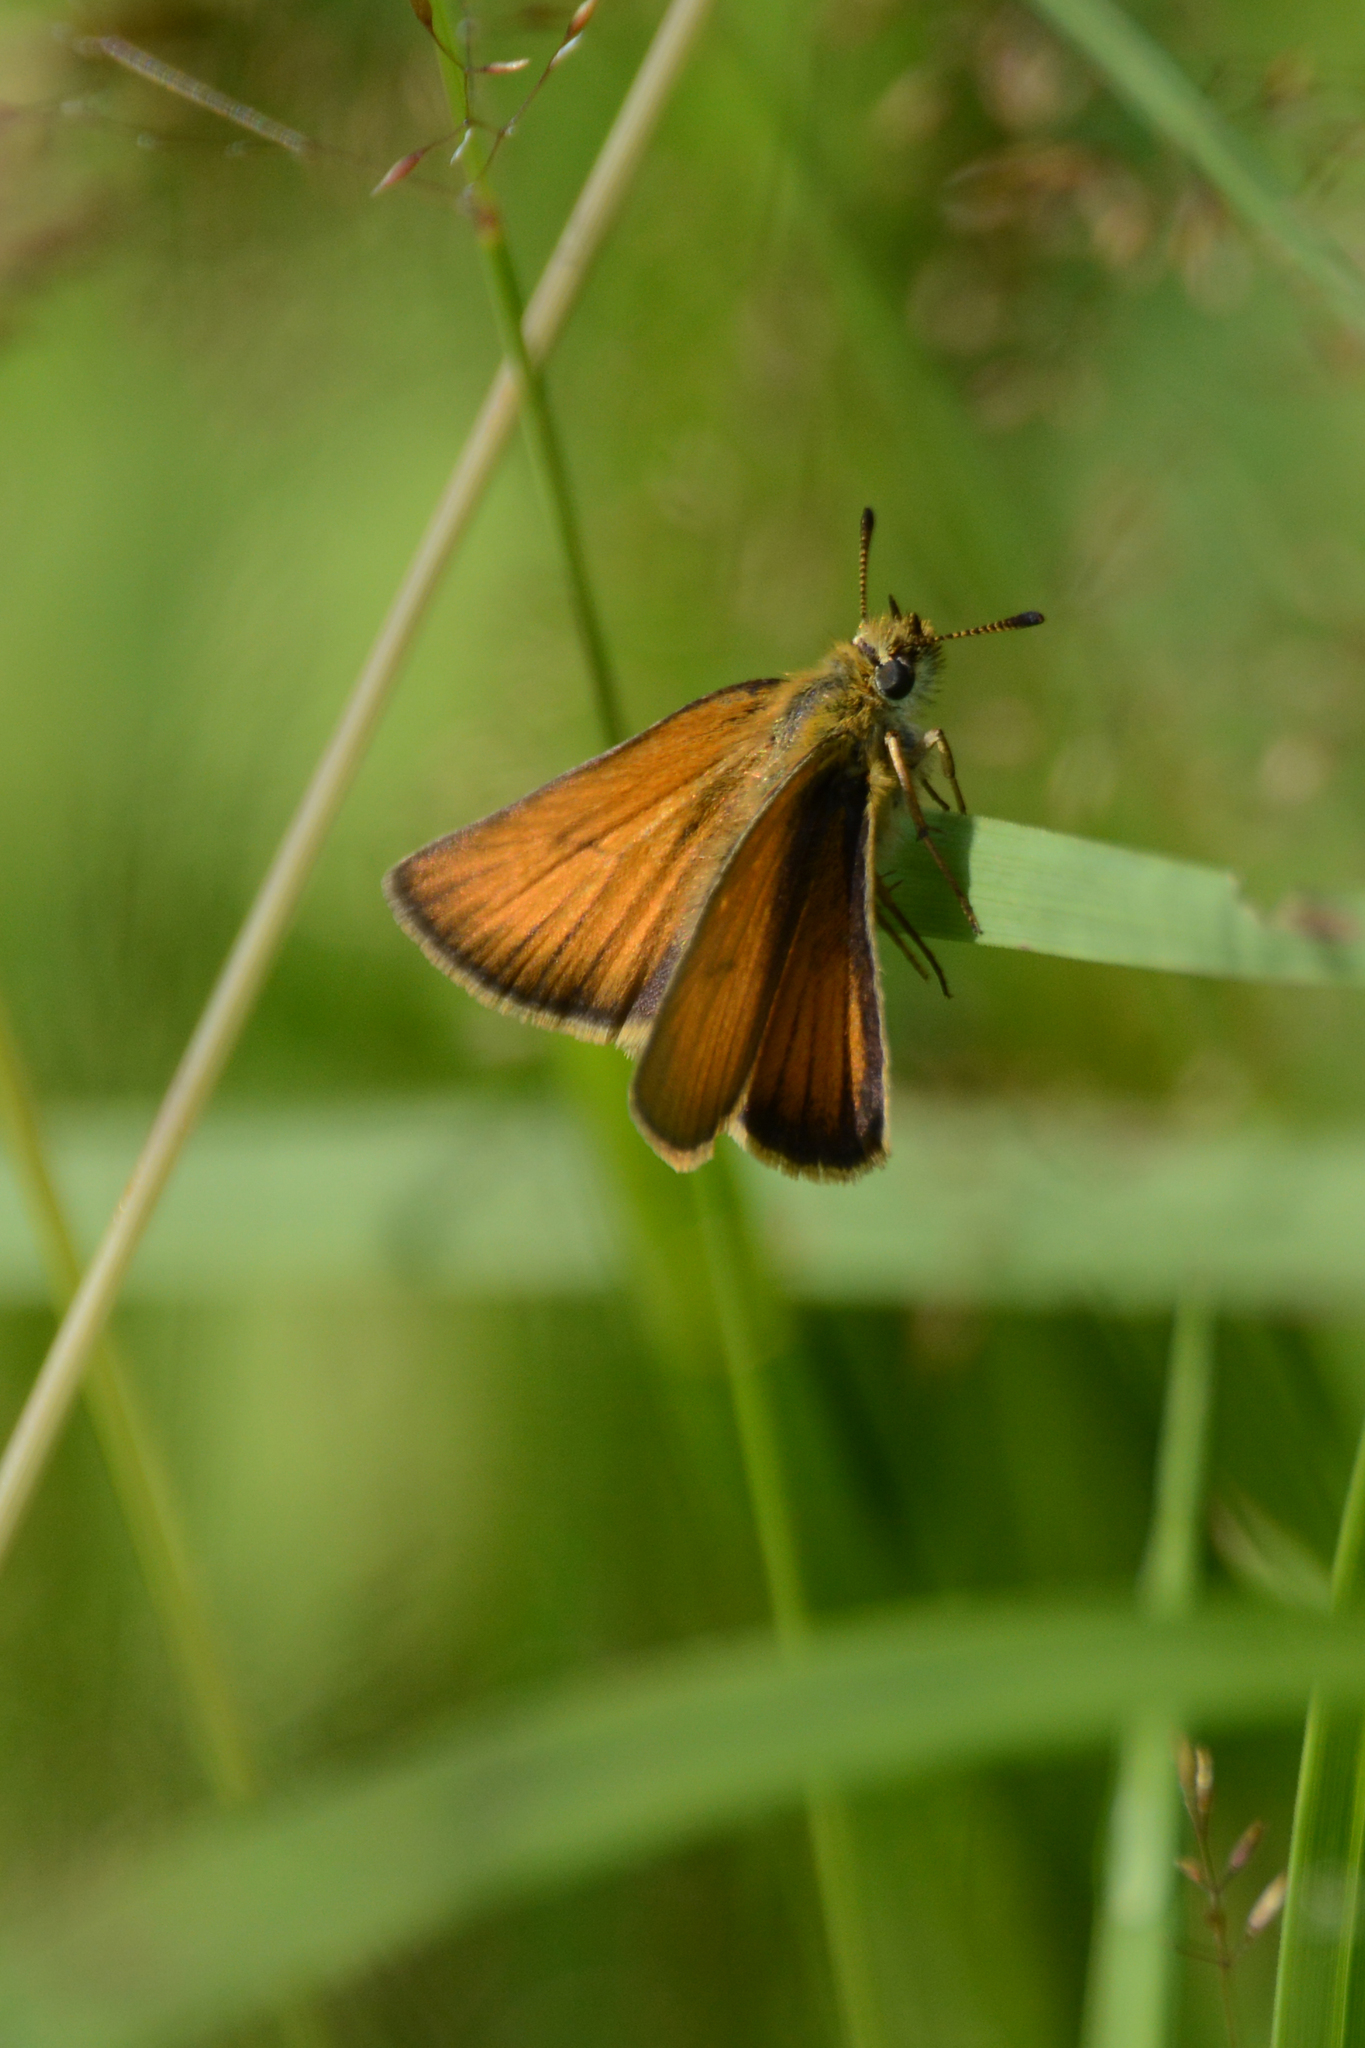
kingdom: Animalia
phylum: Arthropoda
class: Insecta
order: Lepidoptera
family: Hesperiidae
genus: Thymelicus
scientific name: Thymelicus lineola
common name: Essex skipper
